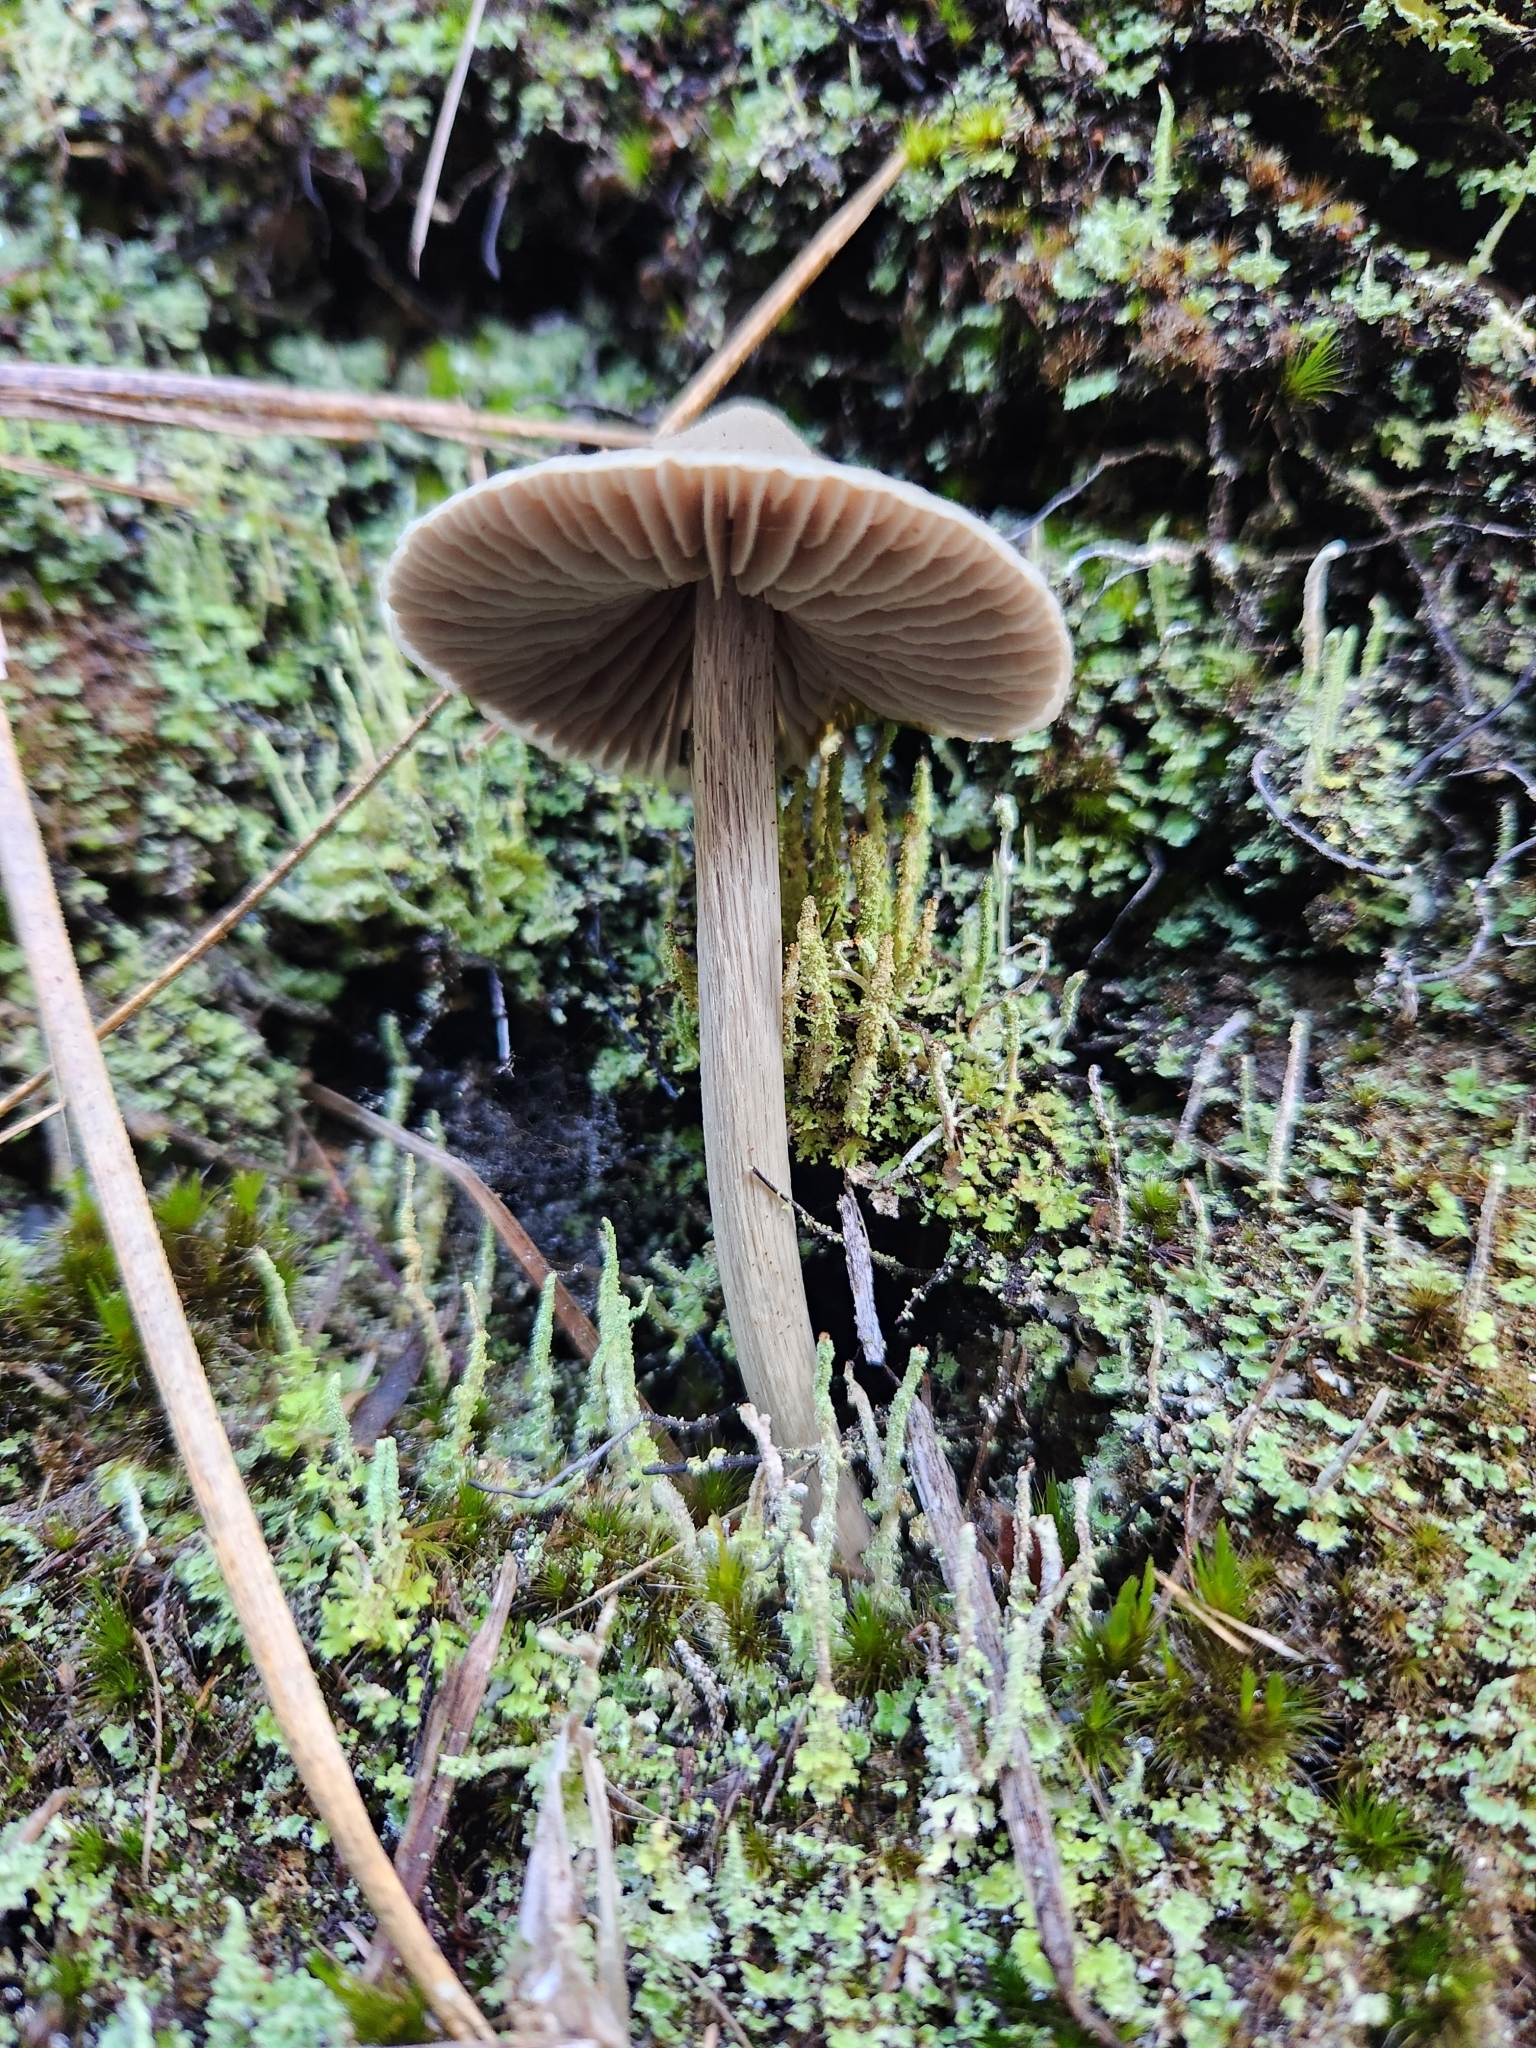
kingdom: Fungi
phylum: Basidiomycota
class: Agaricomycetes
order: Agaricales
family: Entolomataceae
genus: Entoloma
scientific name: Entoloma canoconicum
